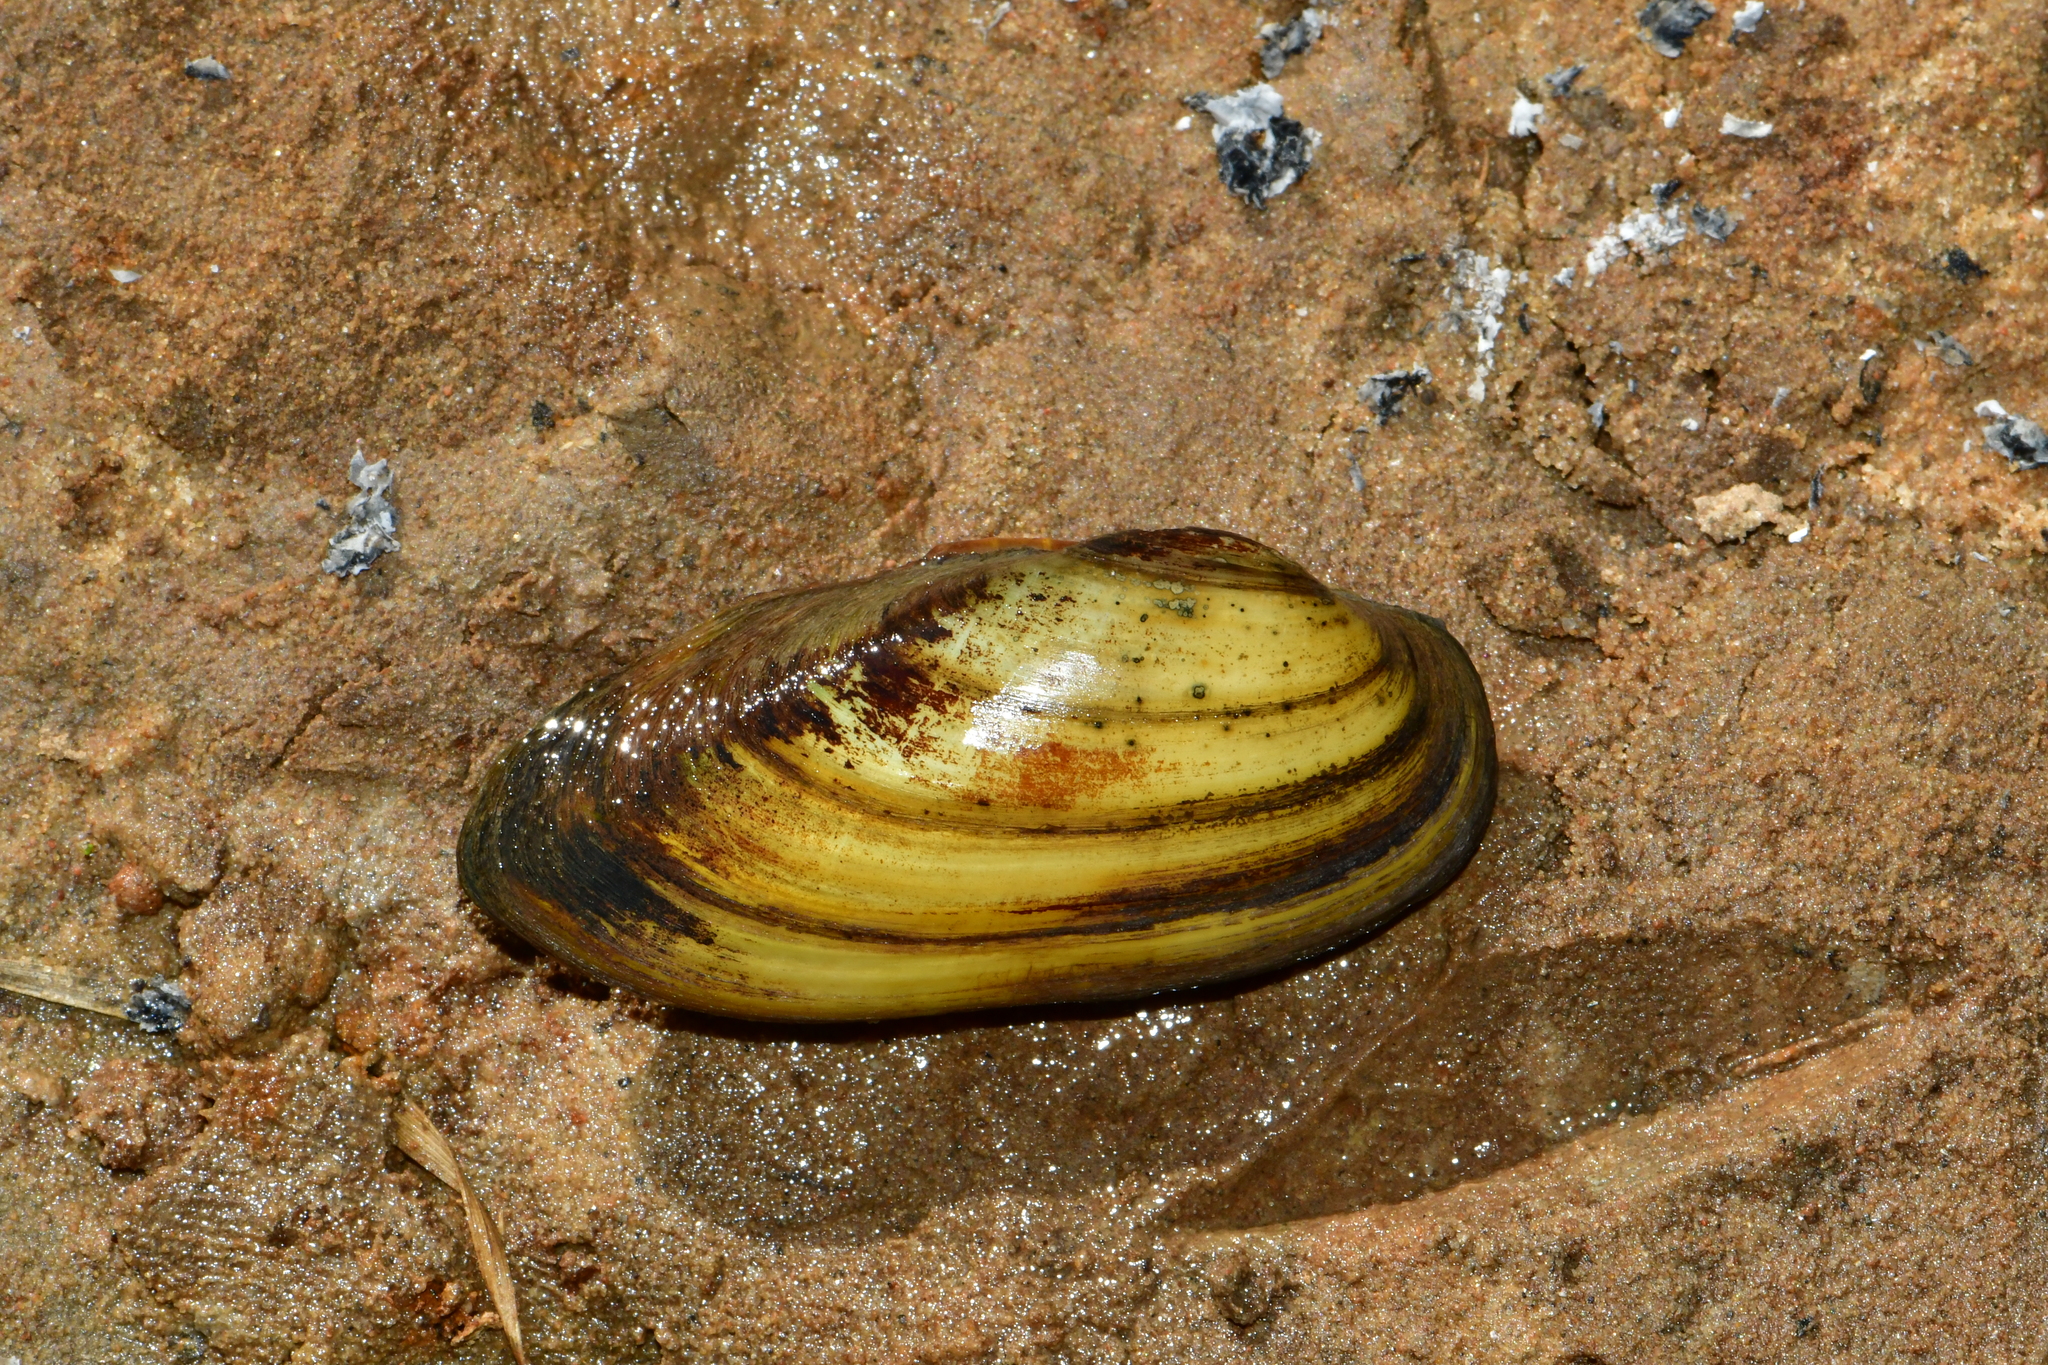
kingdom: Animalia
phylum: Mollusca
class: Bivalvia
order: Unionida
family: Unionidae
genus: Unio
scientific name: Unio pictorum
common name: Painter's mussel
